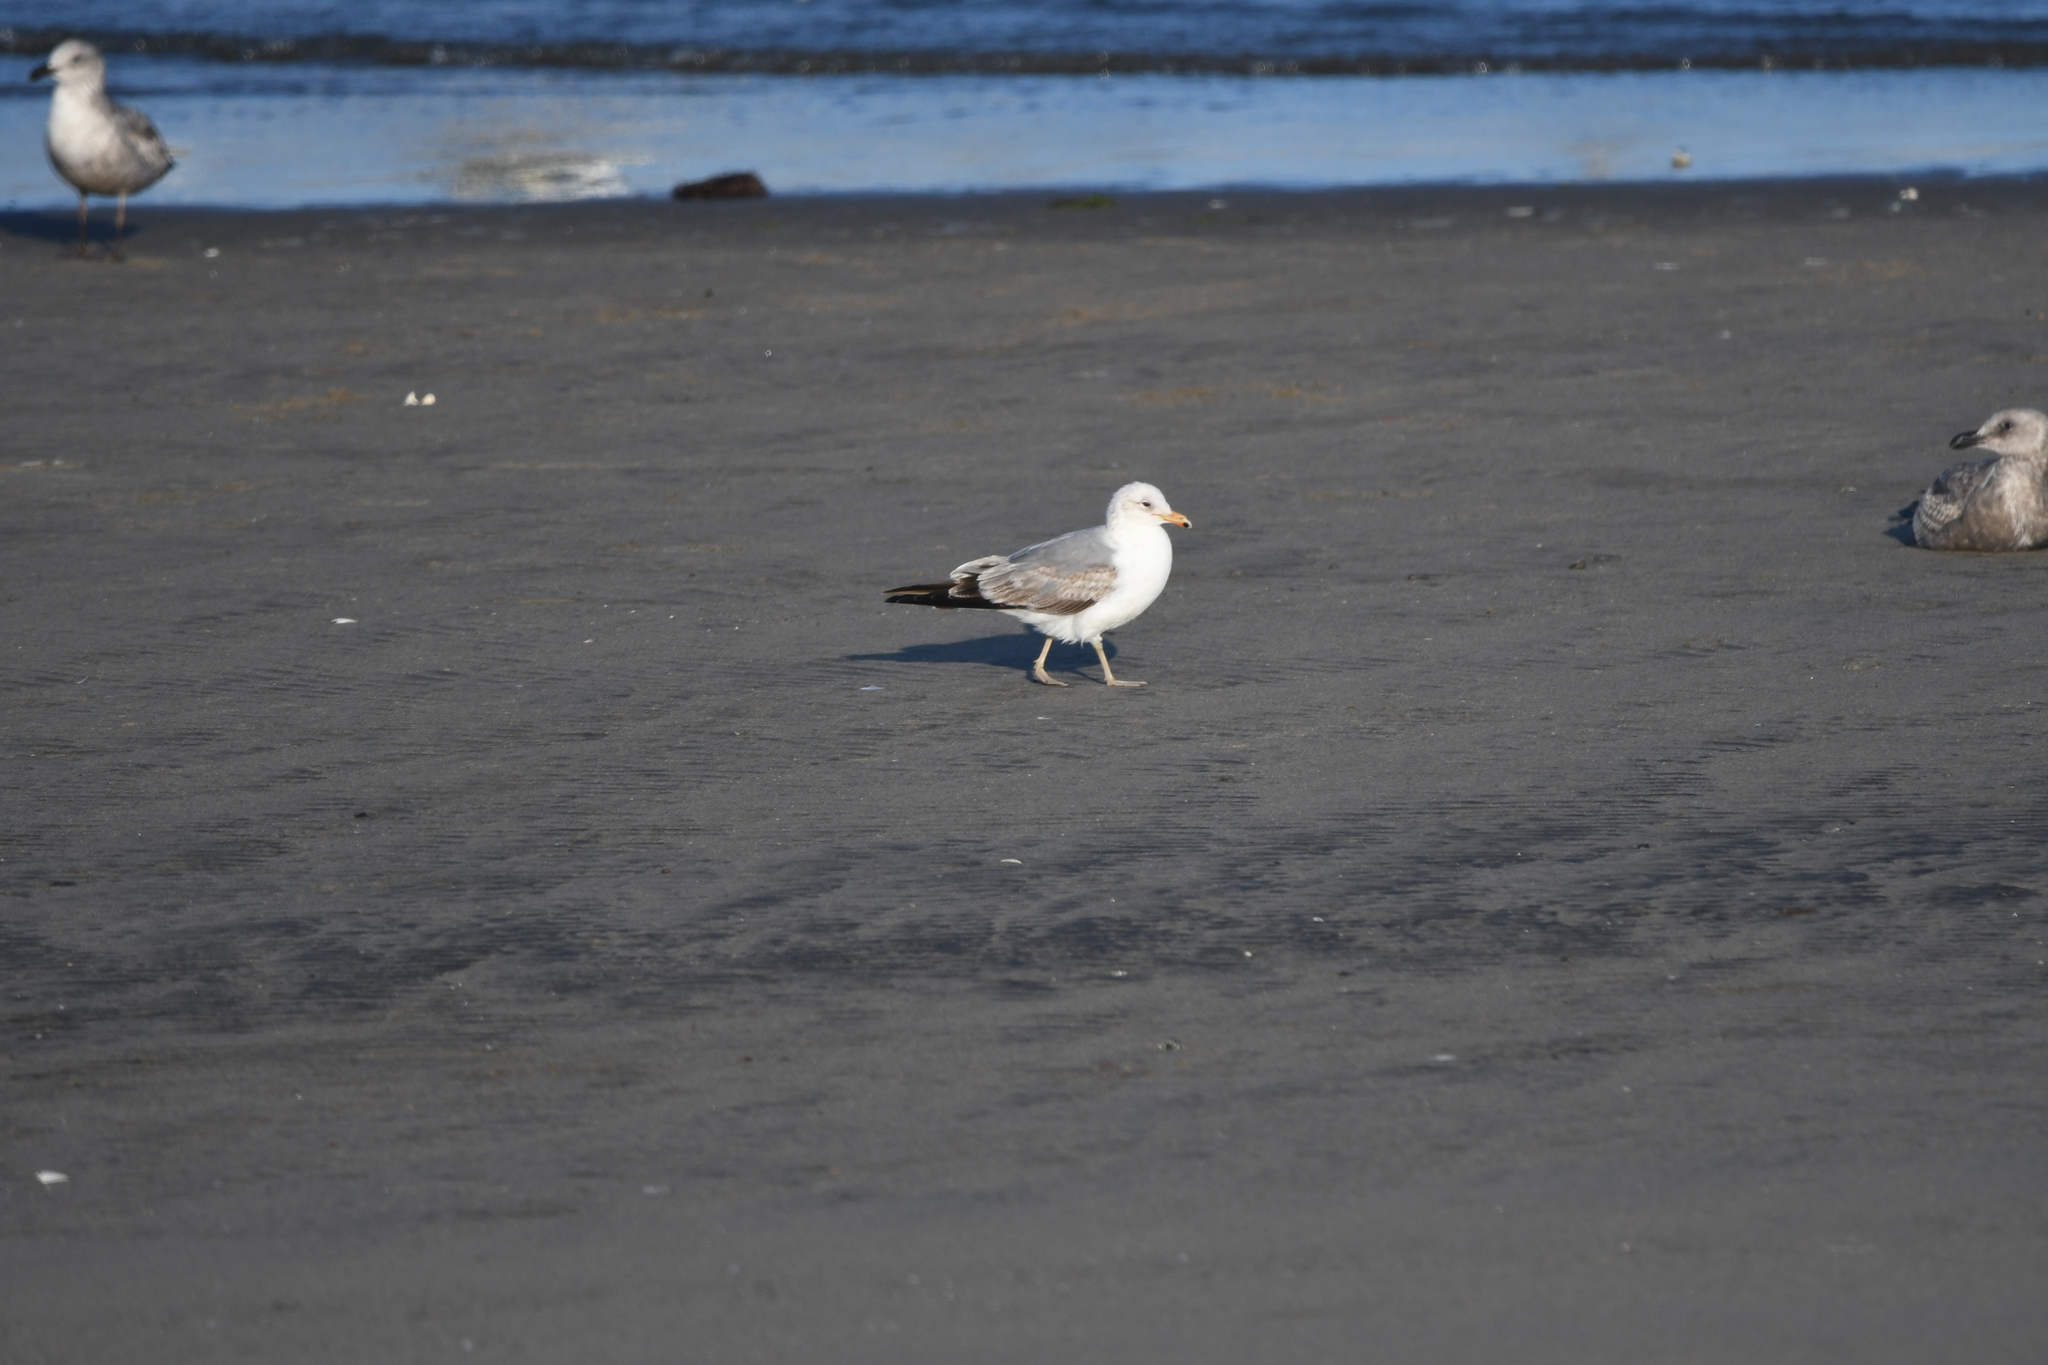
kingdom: Animalia
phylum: Chordata
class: Aves
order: Charadriiformes
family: Laridae
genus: Larus
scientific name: Larus californicus
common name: California gull
